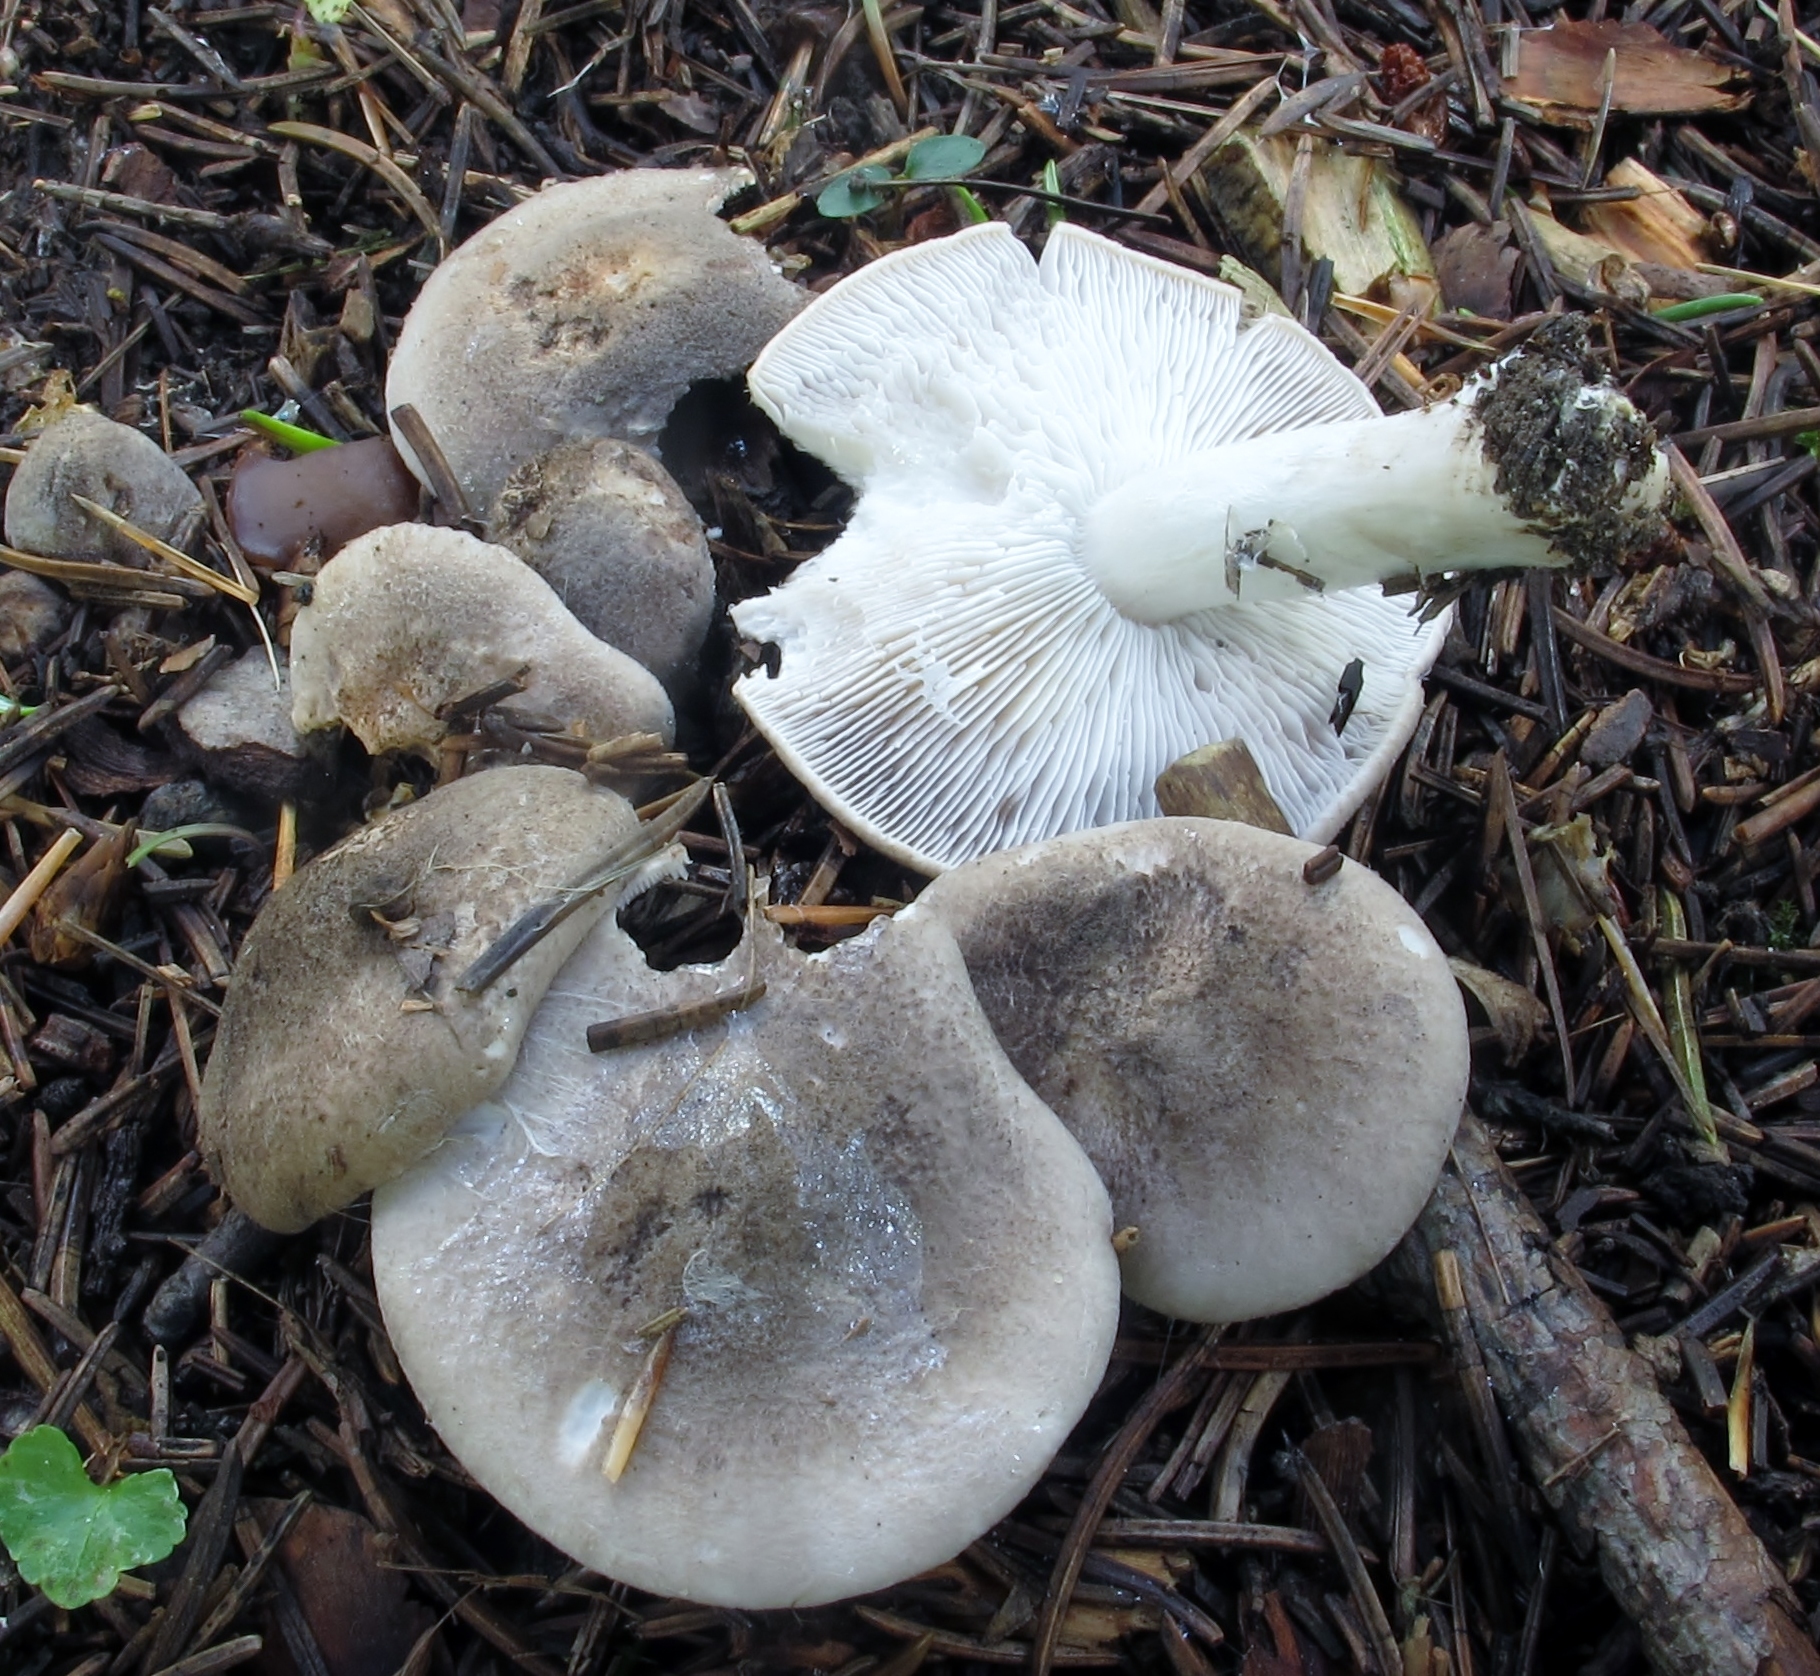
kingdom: Fungi
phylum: Basidiomycota
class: Agaricomycetes
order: Agaricales
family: Tricholomataceae
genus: Tricholoma
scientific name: Tricholoma terreum
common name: Grey knight
